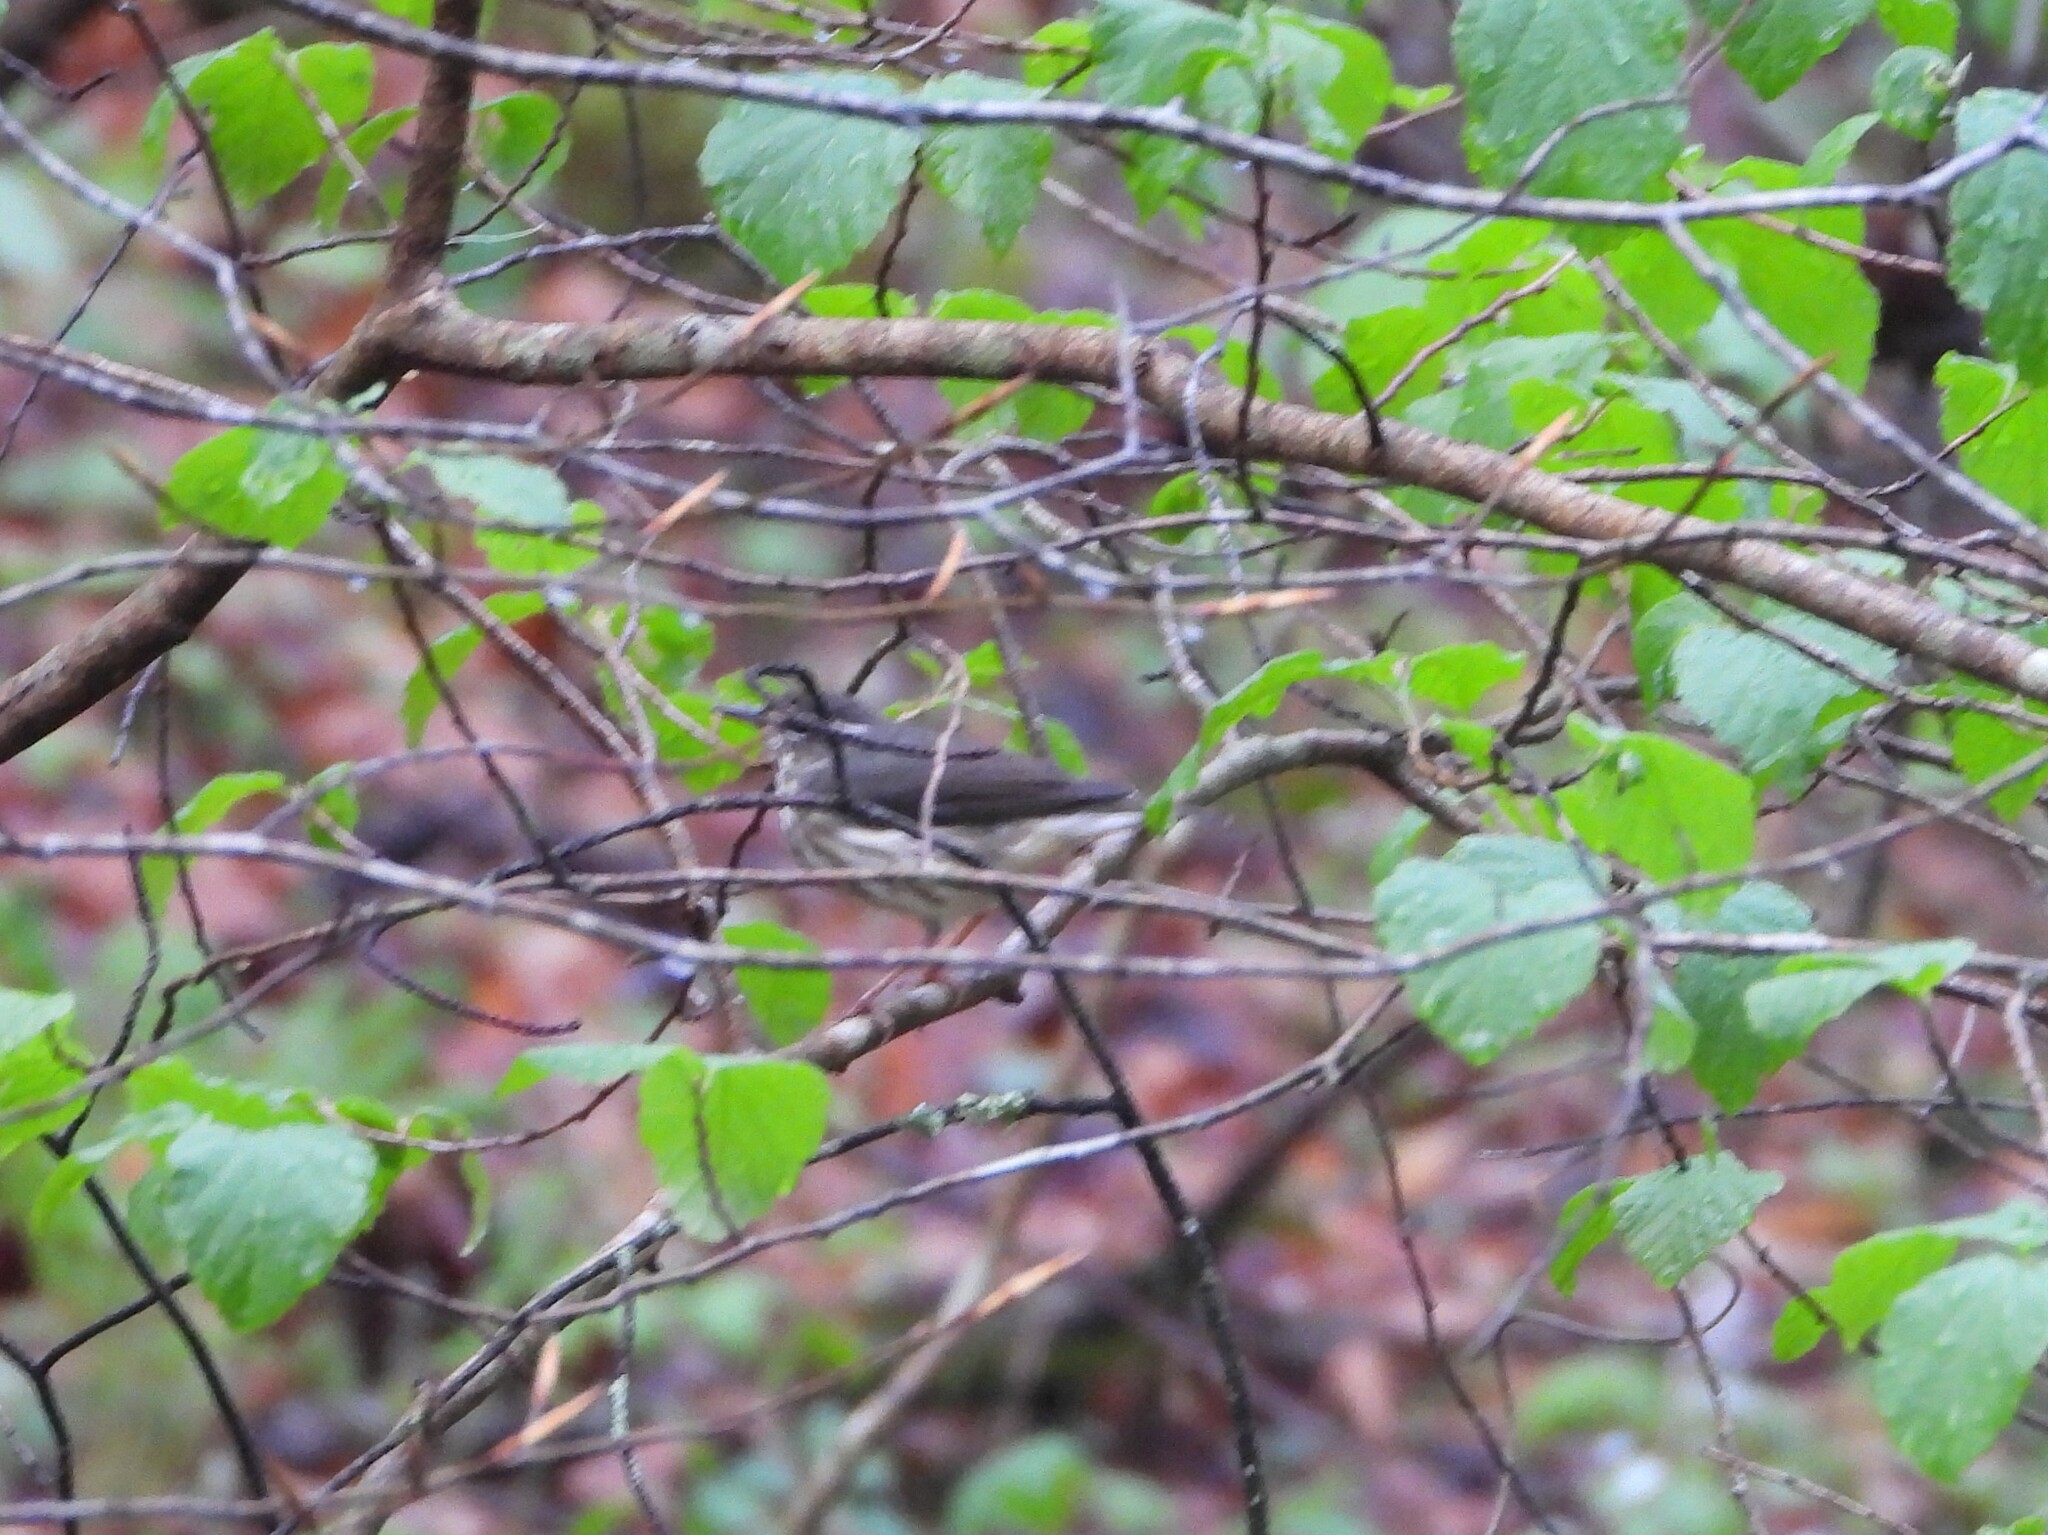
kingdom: Animalia
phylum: Chordata
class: Aves
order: Passeriformes
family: Parulidae
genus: Parkesia
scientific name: Parkesia motacilla
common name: Louisiana waterthrush
